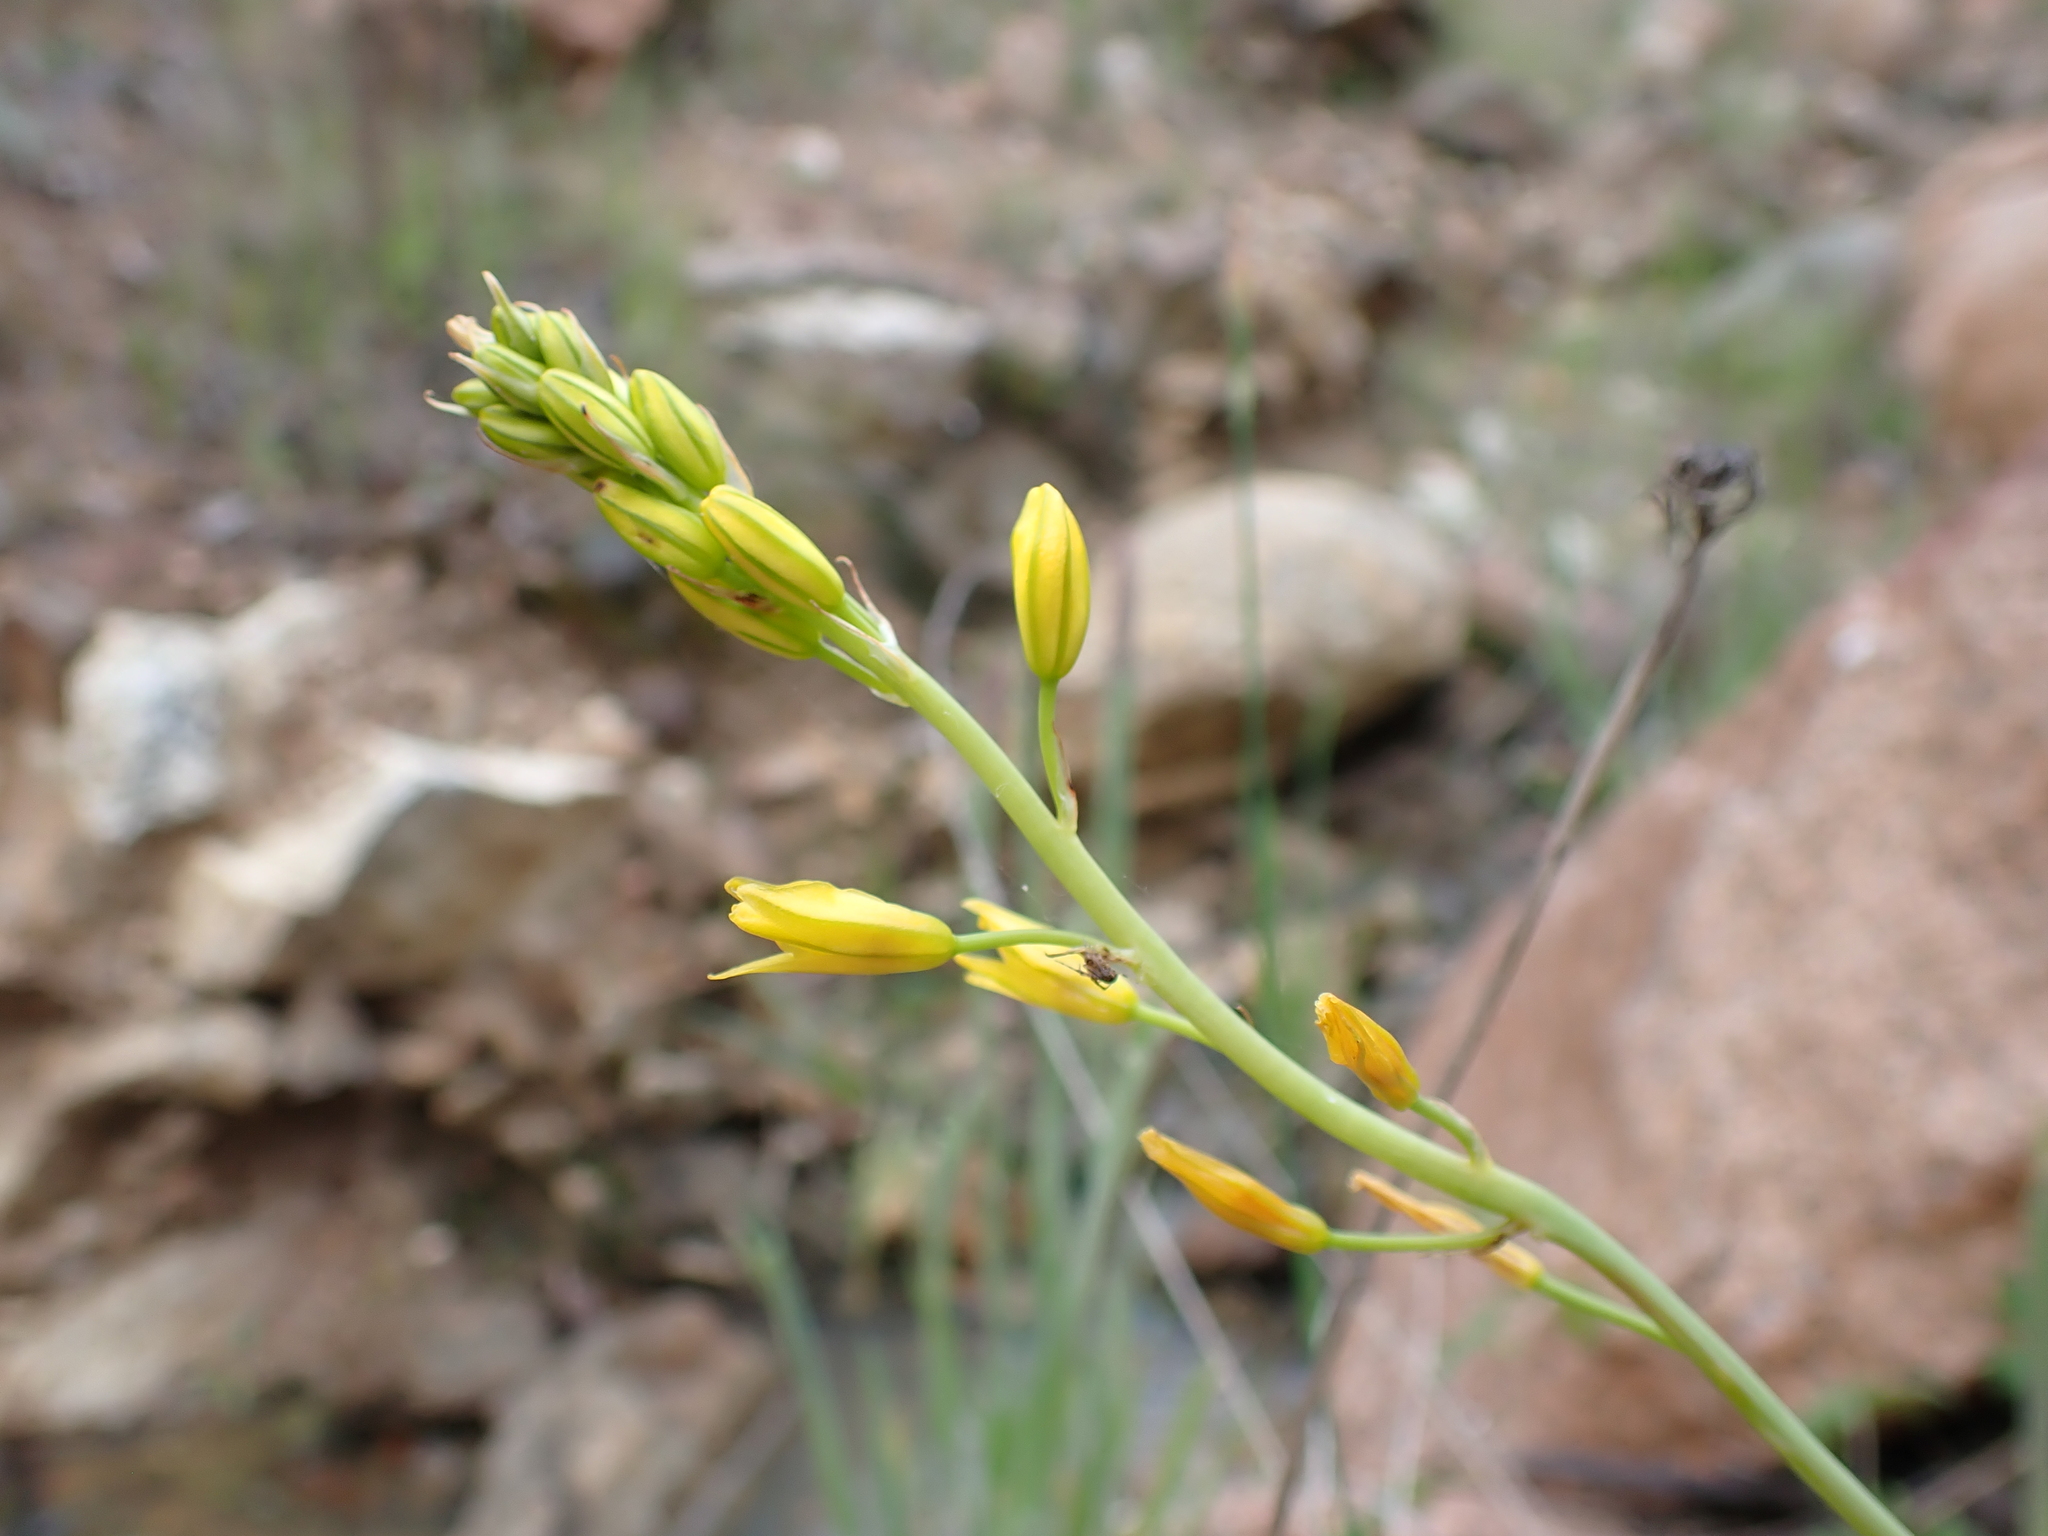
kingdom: Plantae
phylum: Tracheophyta
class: Liliopsida
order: Asparagales
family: Asphodelaceae
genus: Bulbine
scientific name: Bulbine glauca
